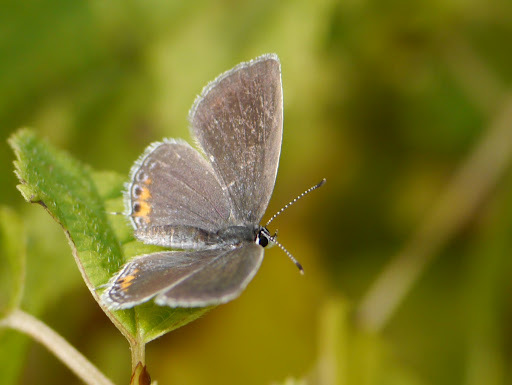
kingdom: Animalia
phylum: Arthropoda
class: Insecta
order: Lepidoptera
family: Lycaenidae
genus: Elkalyce
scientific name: Elkalyce comyntas
